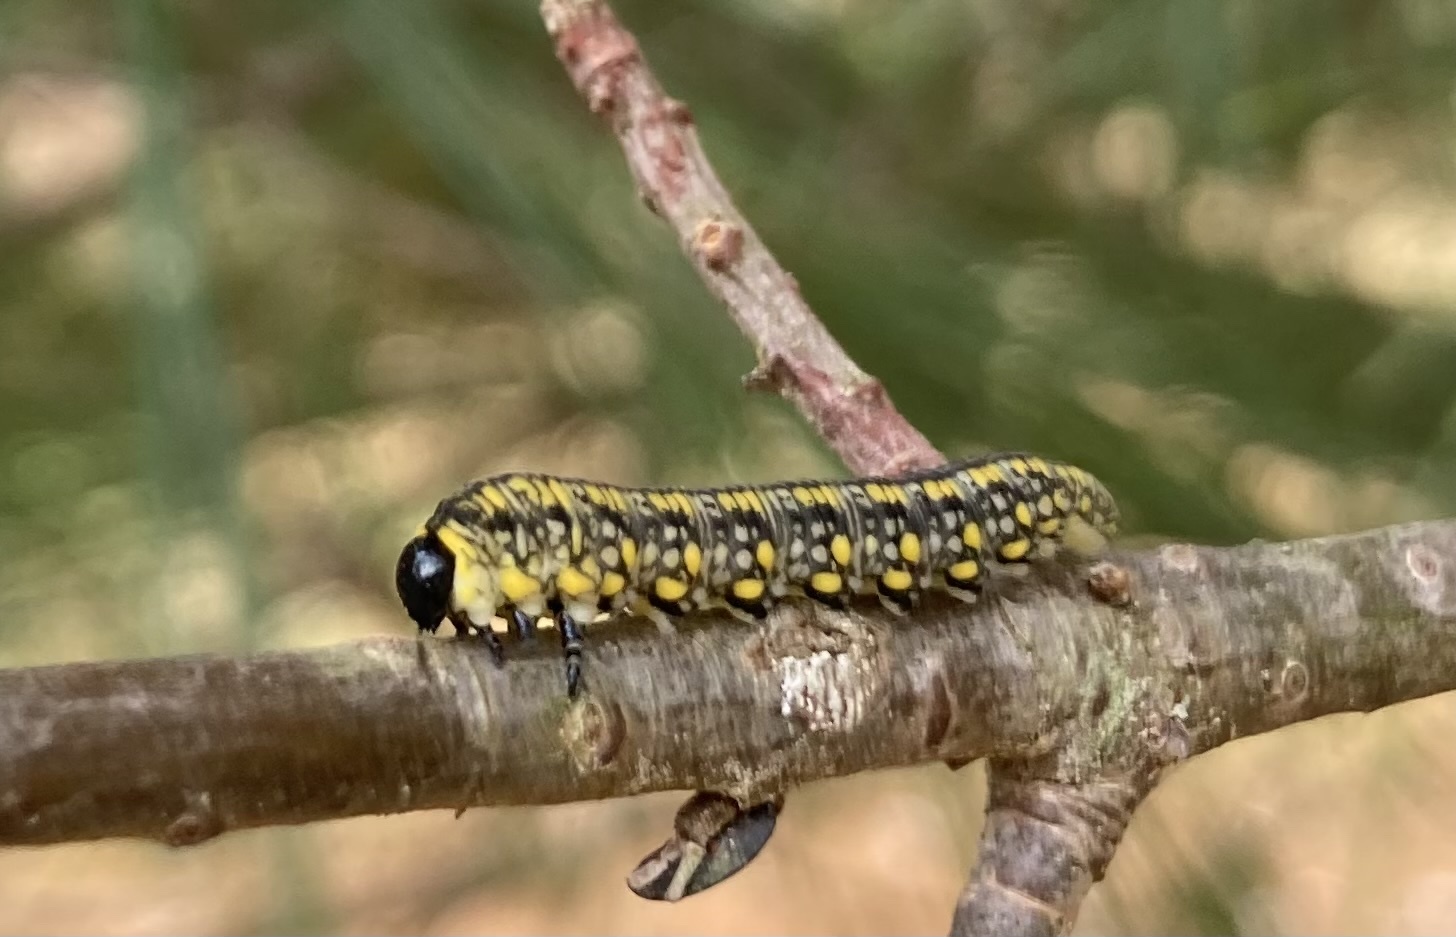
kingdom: Animalia
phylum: Arthropoda
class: Insecta
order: Hymenoptera
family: Diprionidae
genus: Diprion
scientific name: Diprion similis
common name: Pine sawfly
